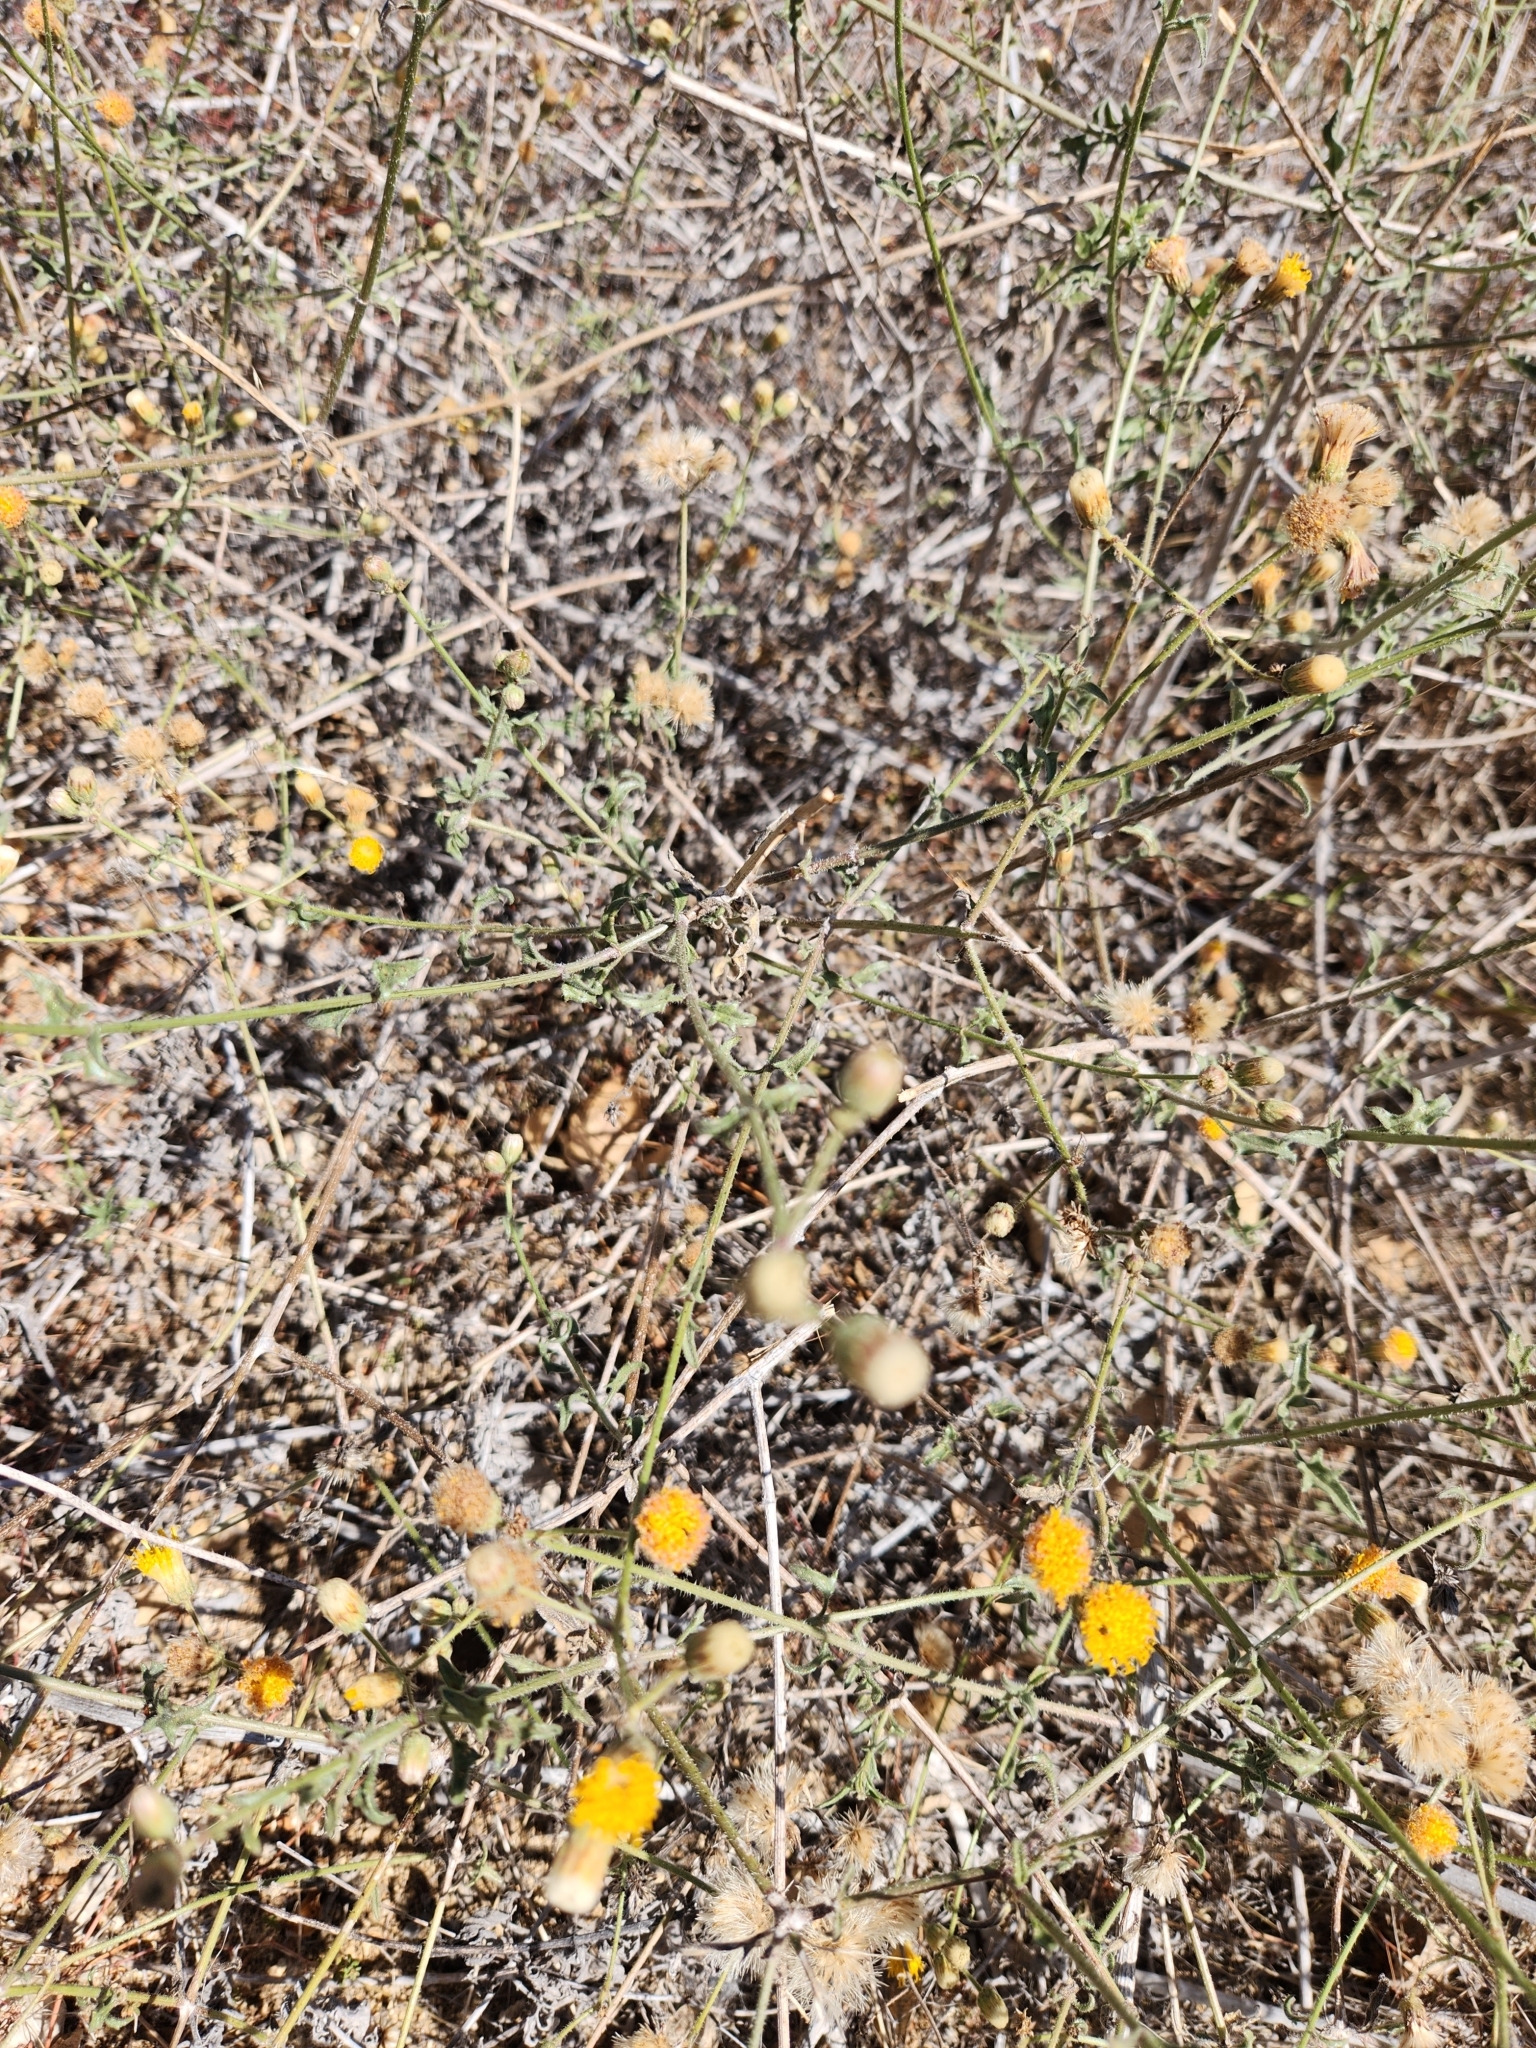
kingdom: Plantae
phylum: Tracheophyta
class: Magnoliopsida
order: Asterales
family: Asteraceae
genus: Bebbia
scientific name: Bebbia atriplicifolia
